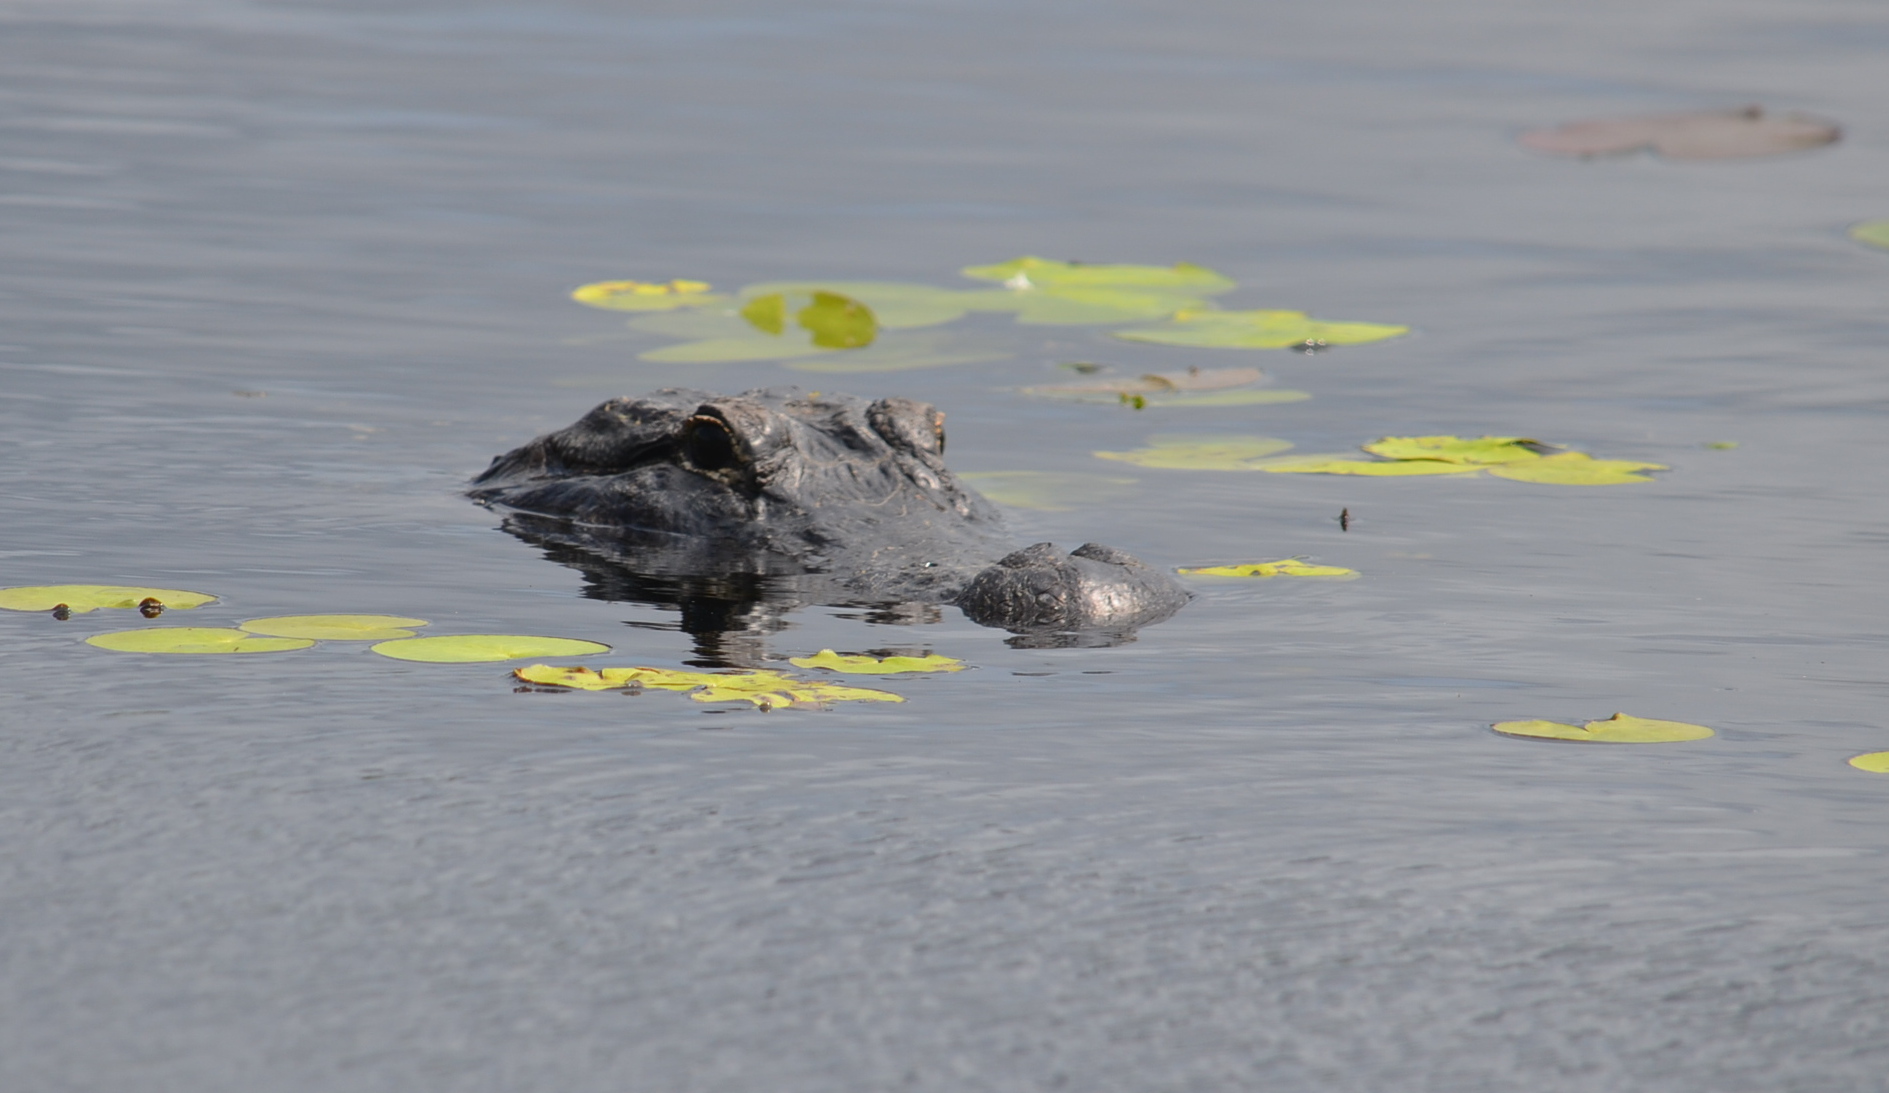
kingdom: Animalia
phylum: Chordata
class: Crocodylia
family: Alligatoridae
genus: Alligator
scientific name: Alligator mississippiensis
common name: American alligator
